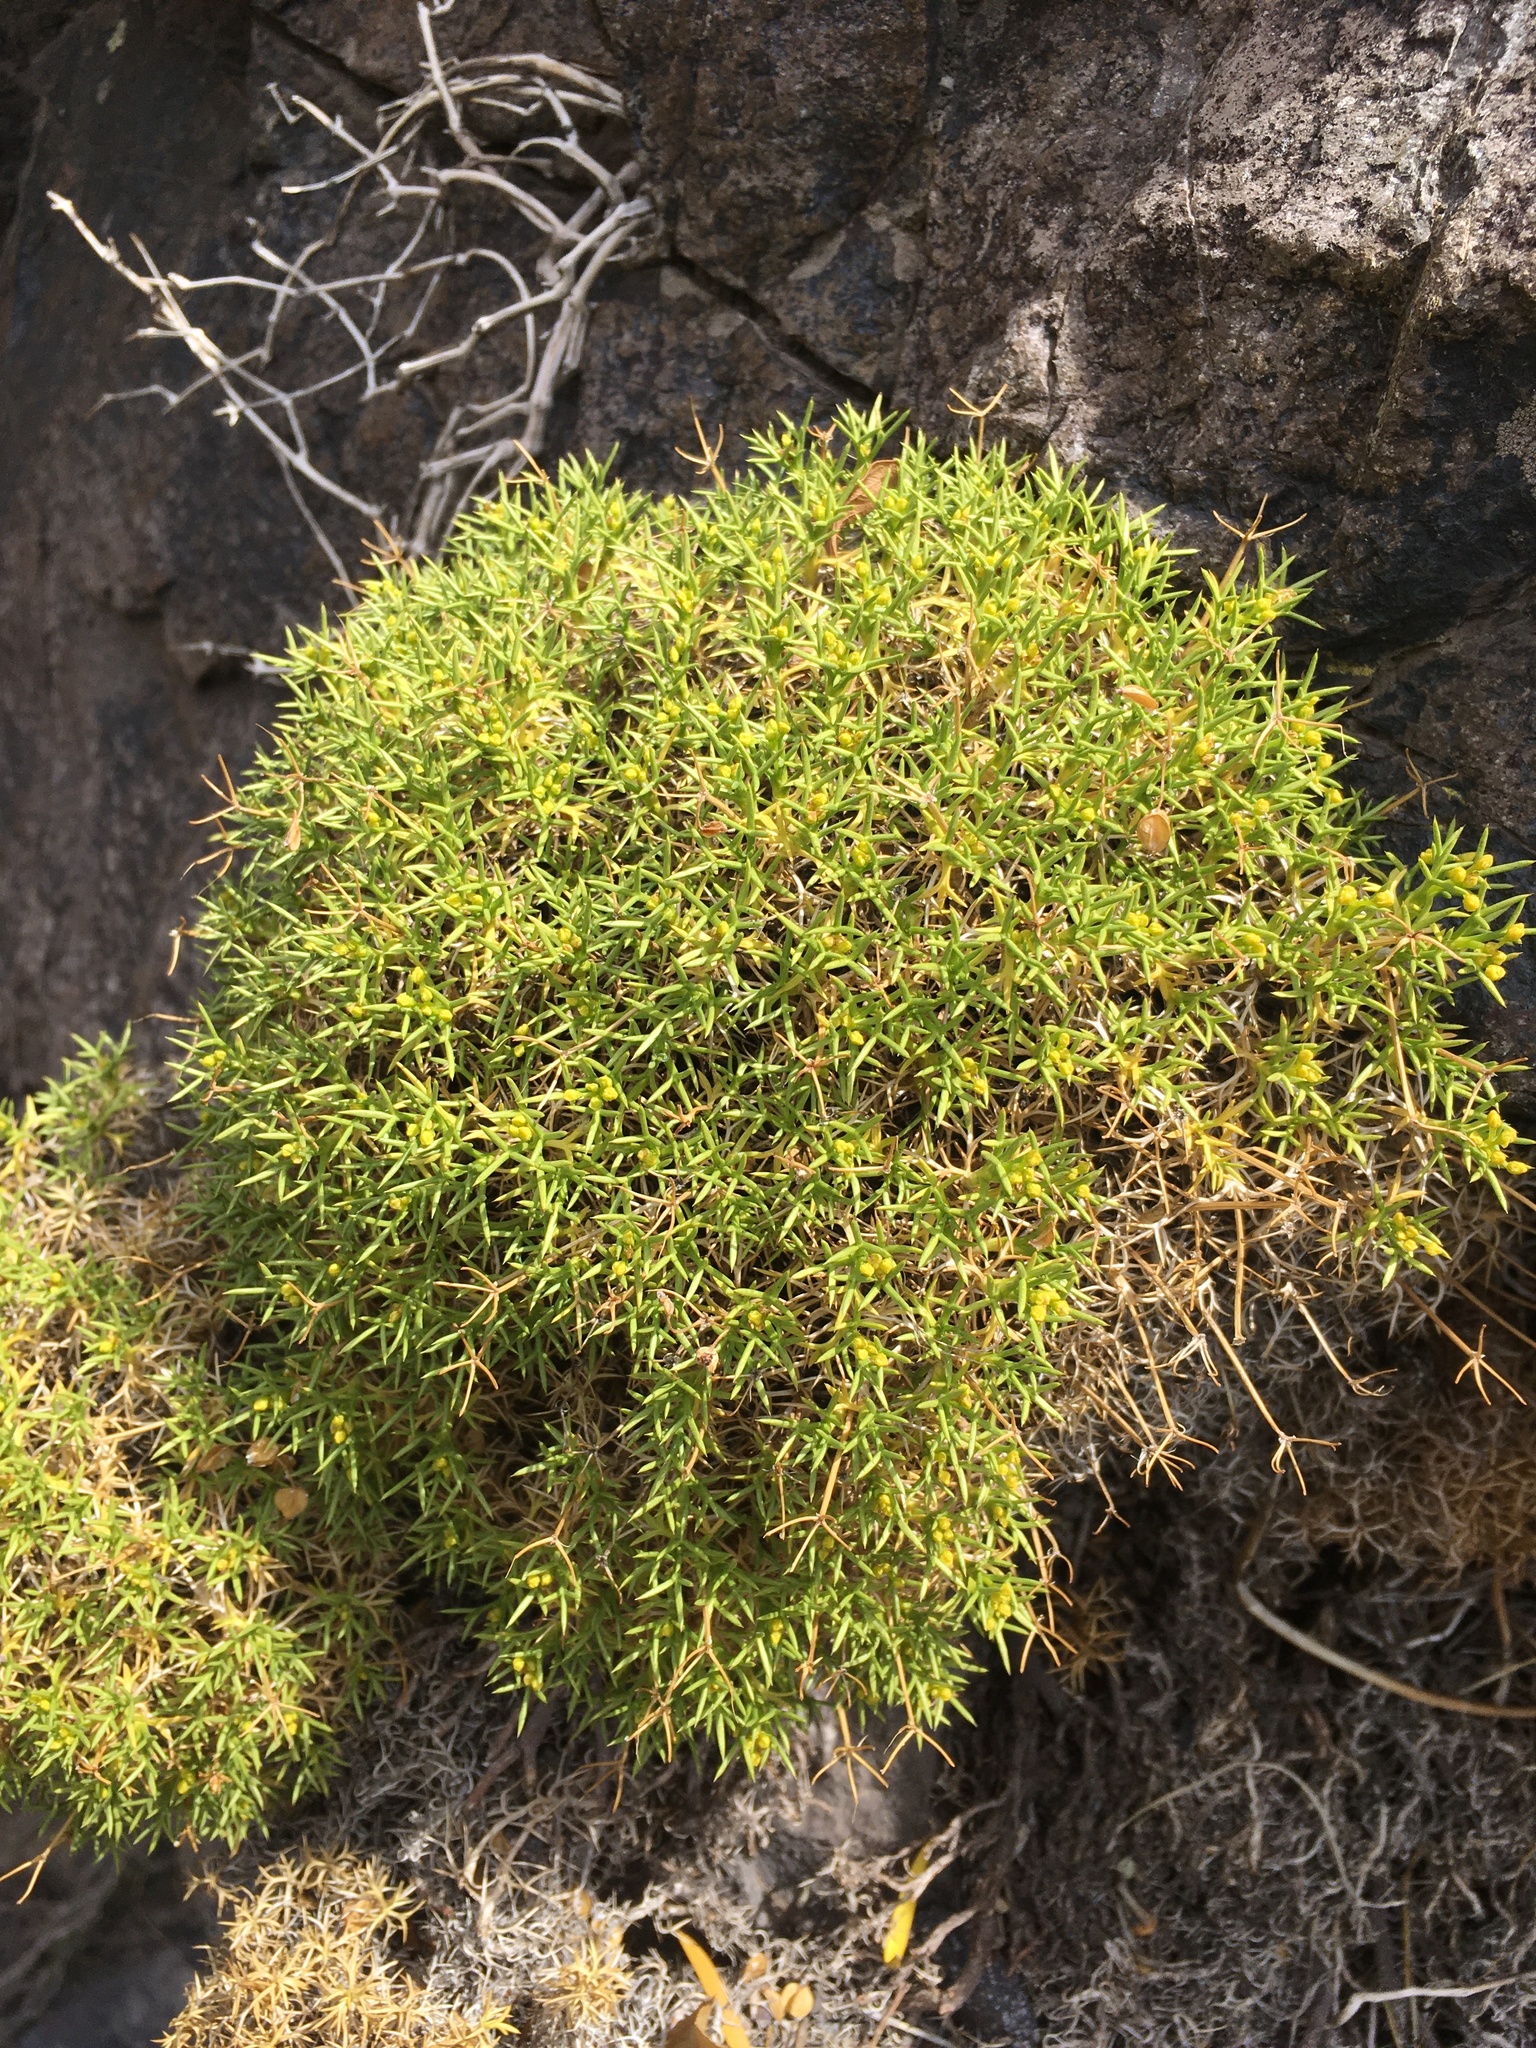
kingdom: Plantae
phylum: Tracheophyta
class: Magnoliopsida
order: Apiales
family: Apiaceae
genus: Azorella
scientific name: Azorella prolifera
